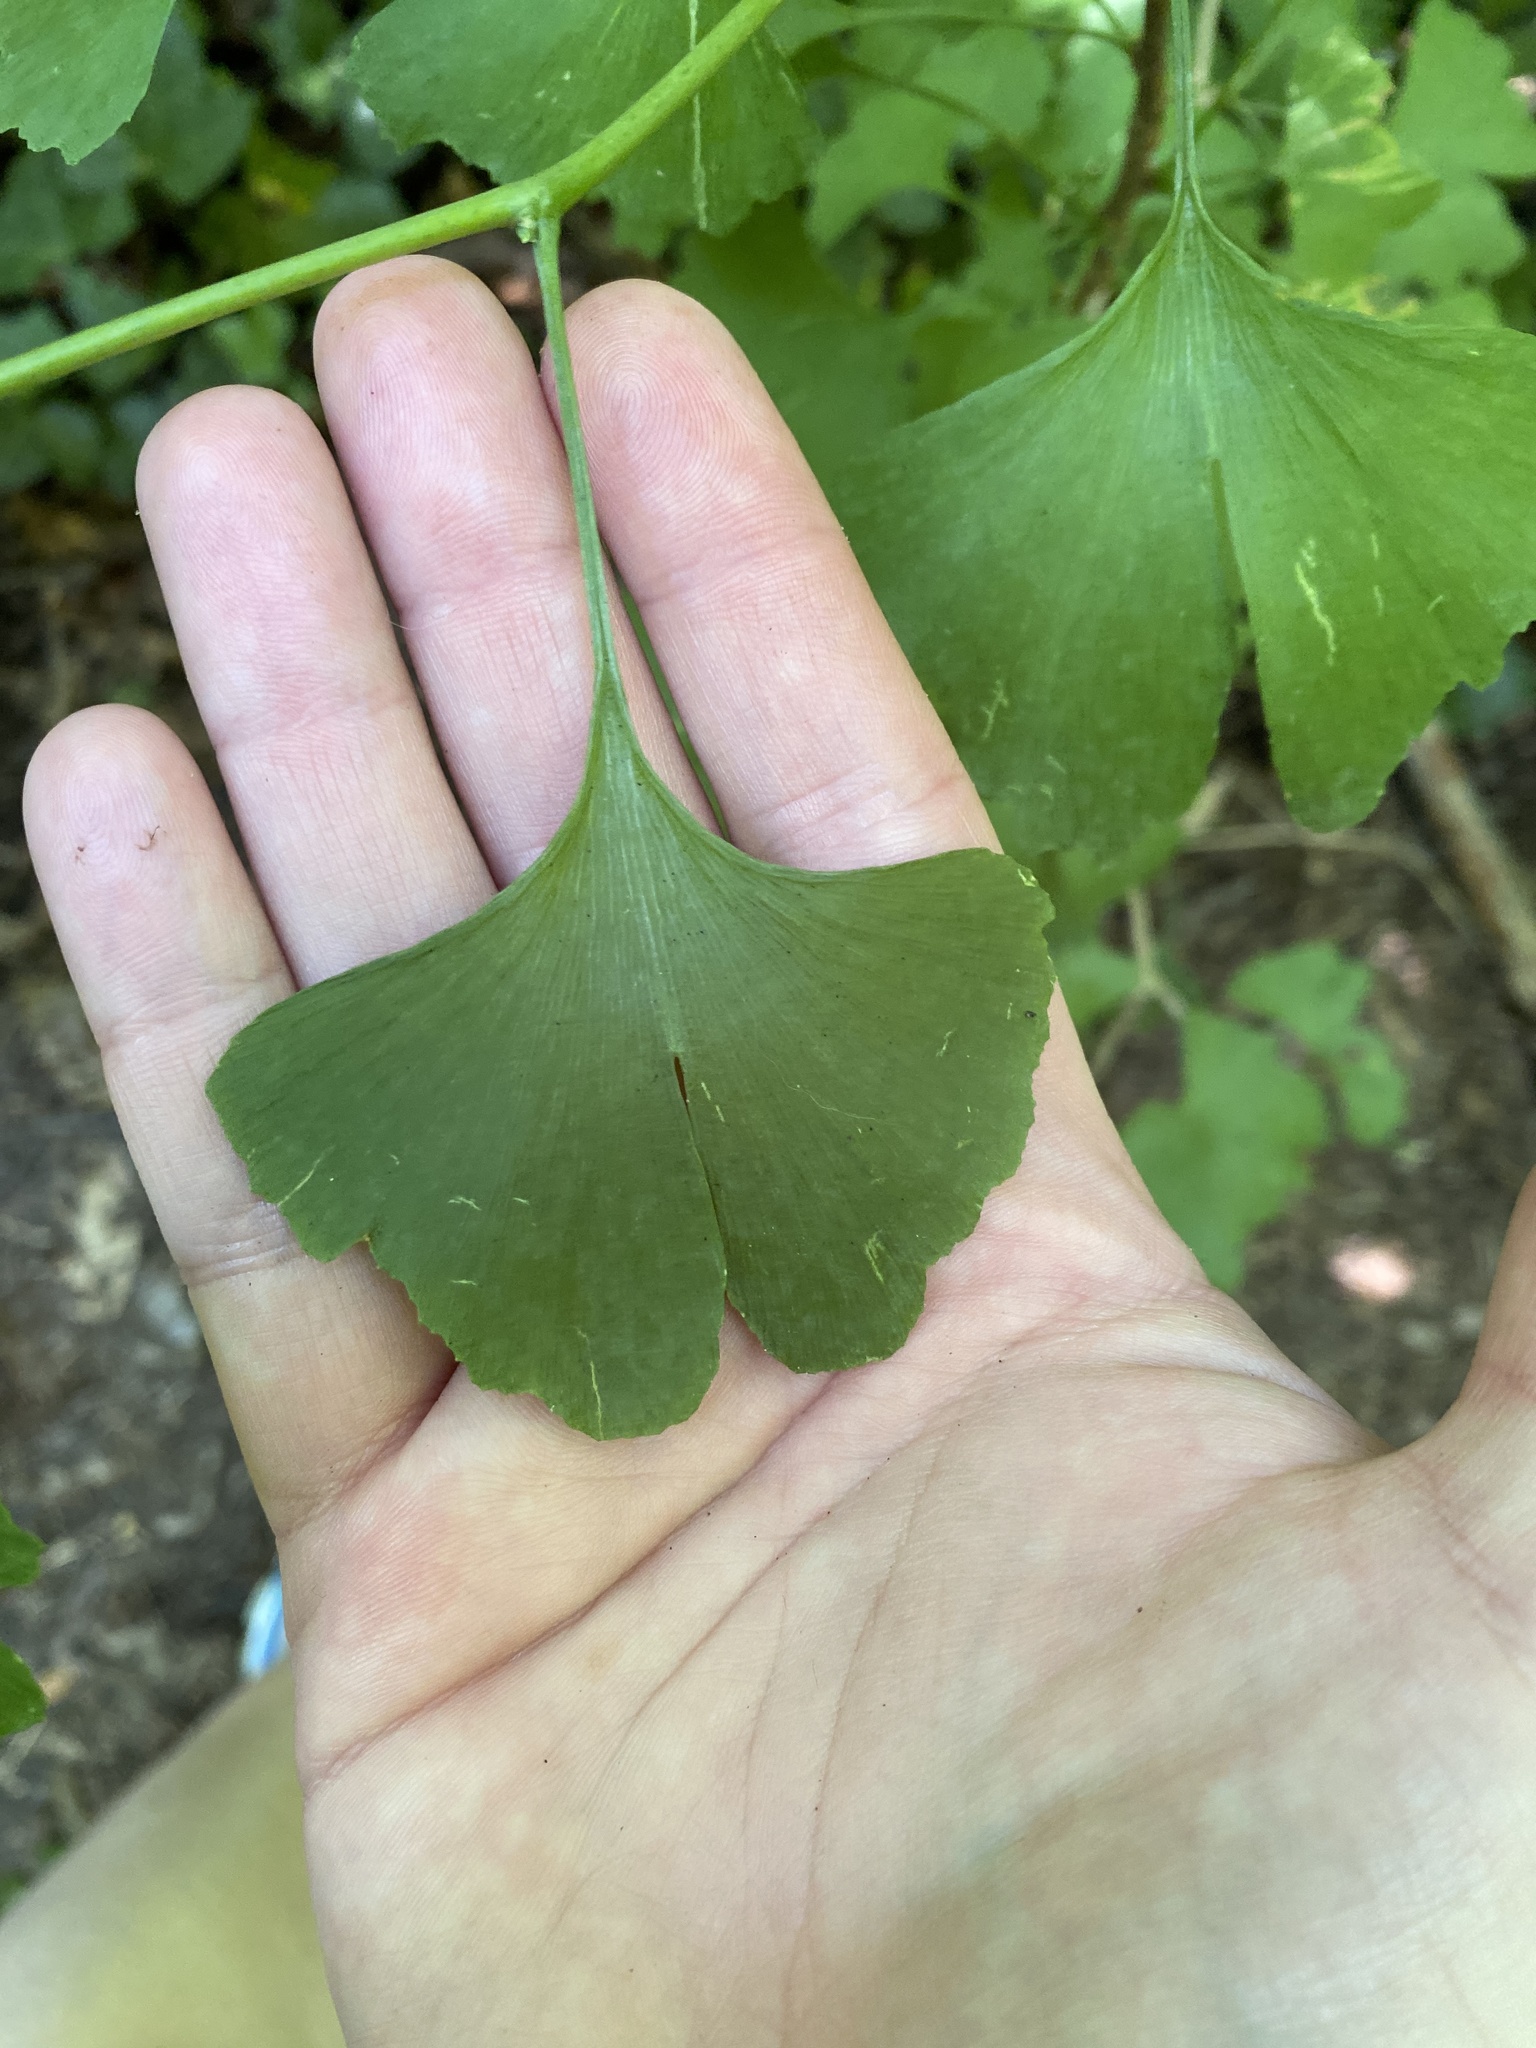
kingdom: Plantae
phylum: Tracheophyta
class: Ginkgoopsida
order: Ginkgoales
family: Ginkgoaceae
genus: Ginkgo
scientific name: Ginkgo biloba
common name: Ginkgo
